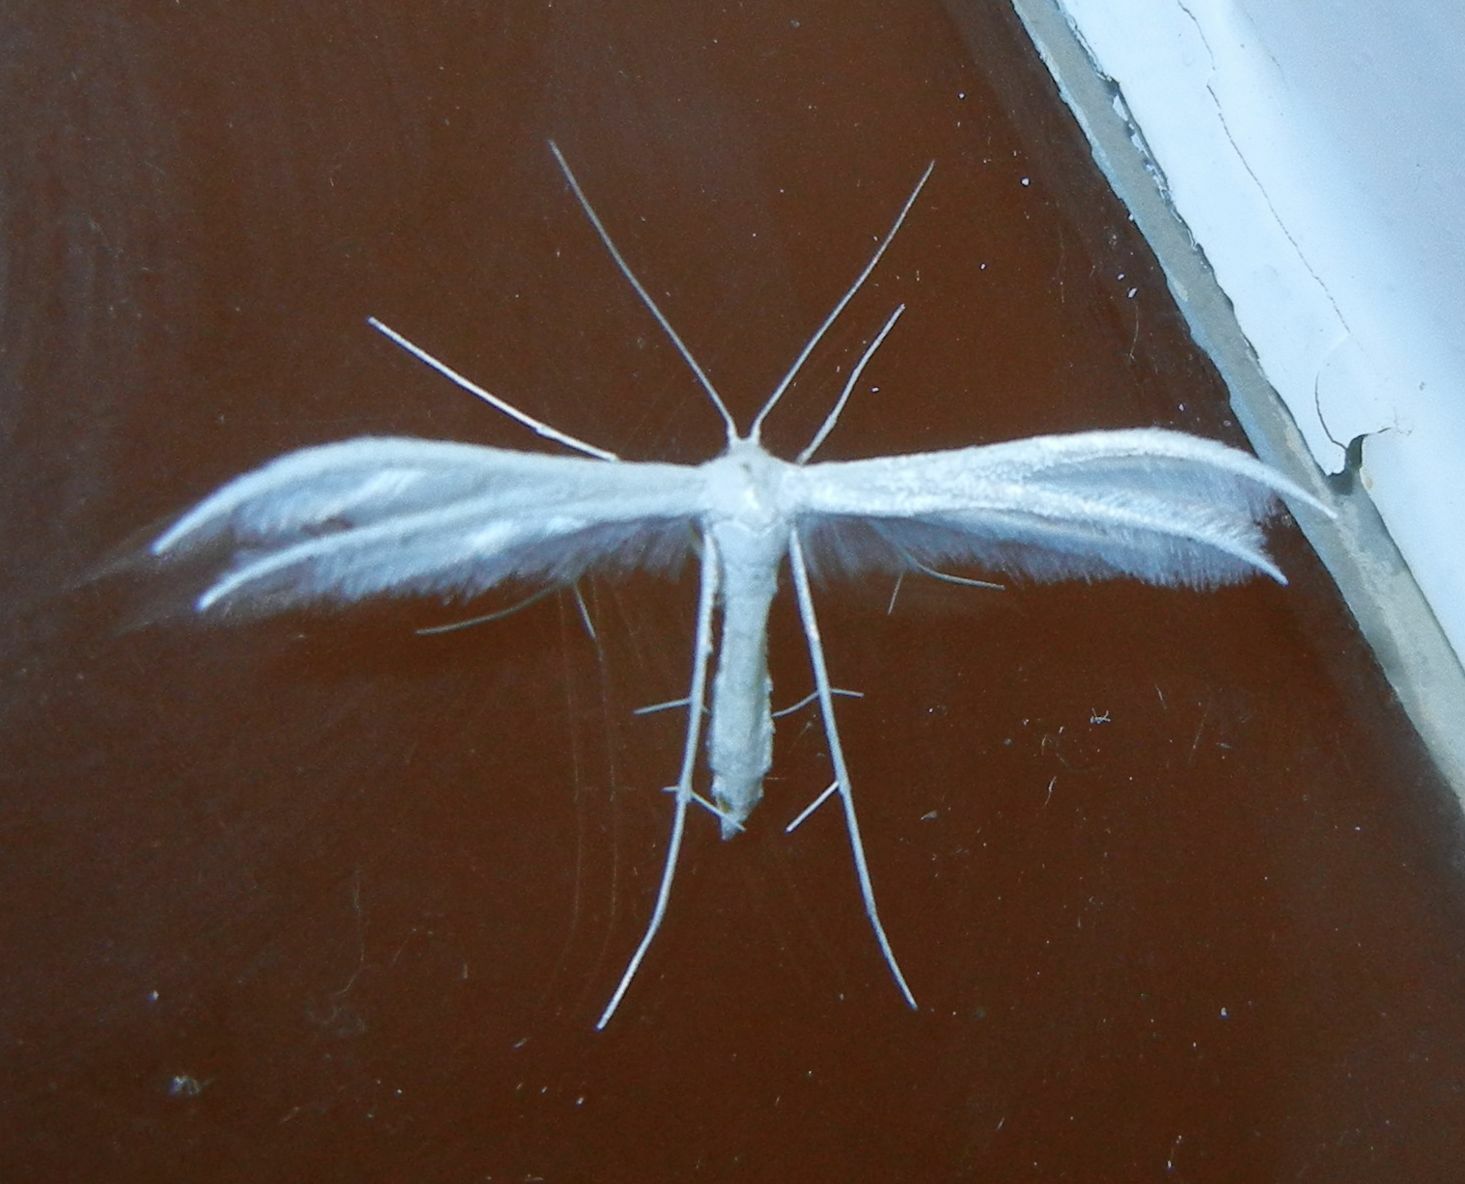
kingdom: Animalia
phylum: Arthropoda
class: Insecta
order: Lepidoptera
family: Pterophoridae
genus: Pterophorus
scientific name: Pterophorus pentadactyla
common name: White plume moth
